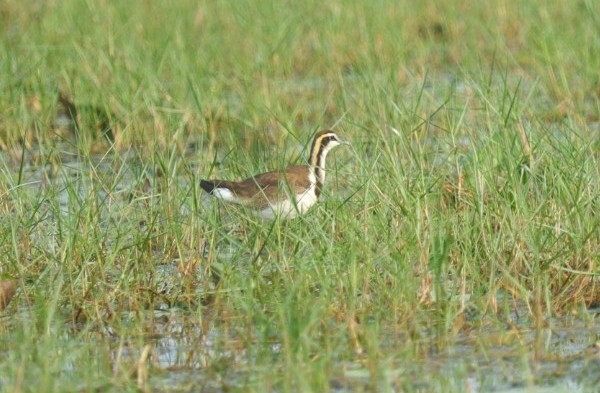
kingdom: Animalia
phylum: Chordata
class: Aves
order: Charadriiformes
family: Jacanidae
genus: Hydrophasianus
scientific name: Hydrophasianus chirurgus
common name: Pheasant-tailed jacana
